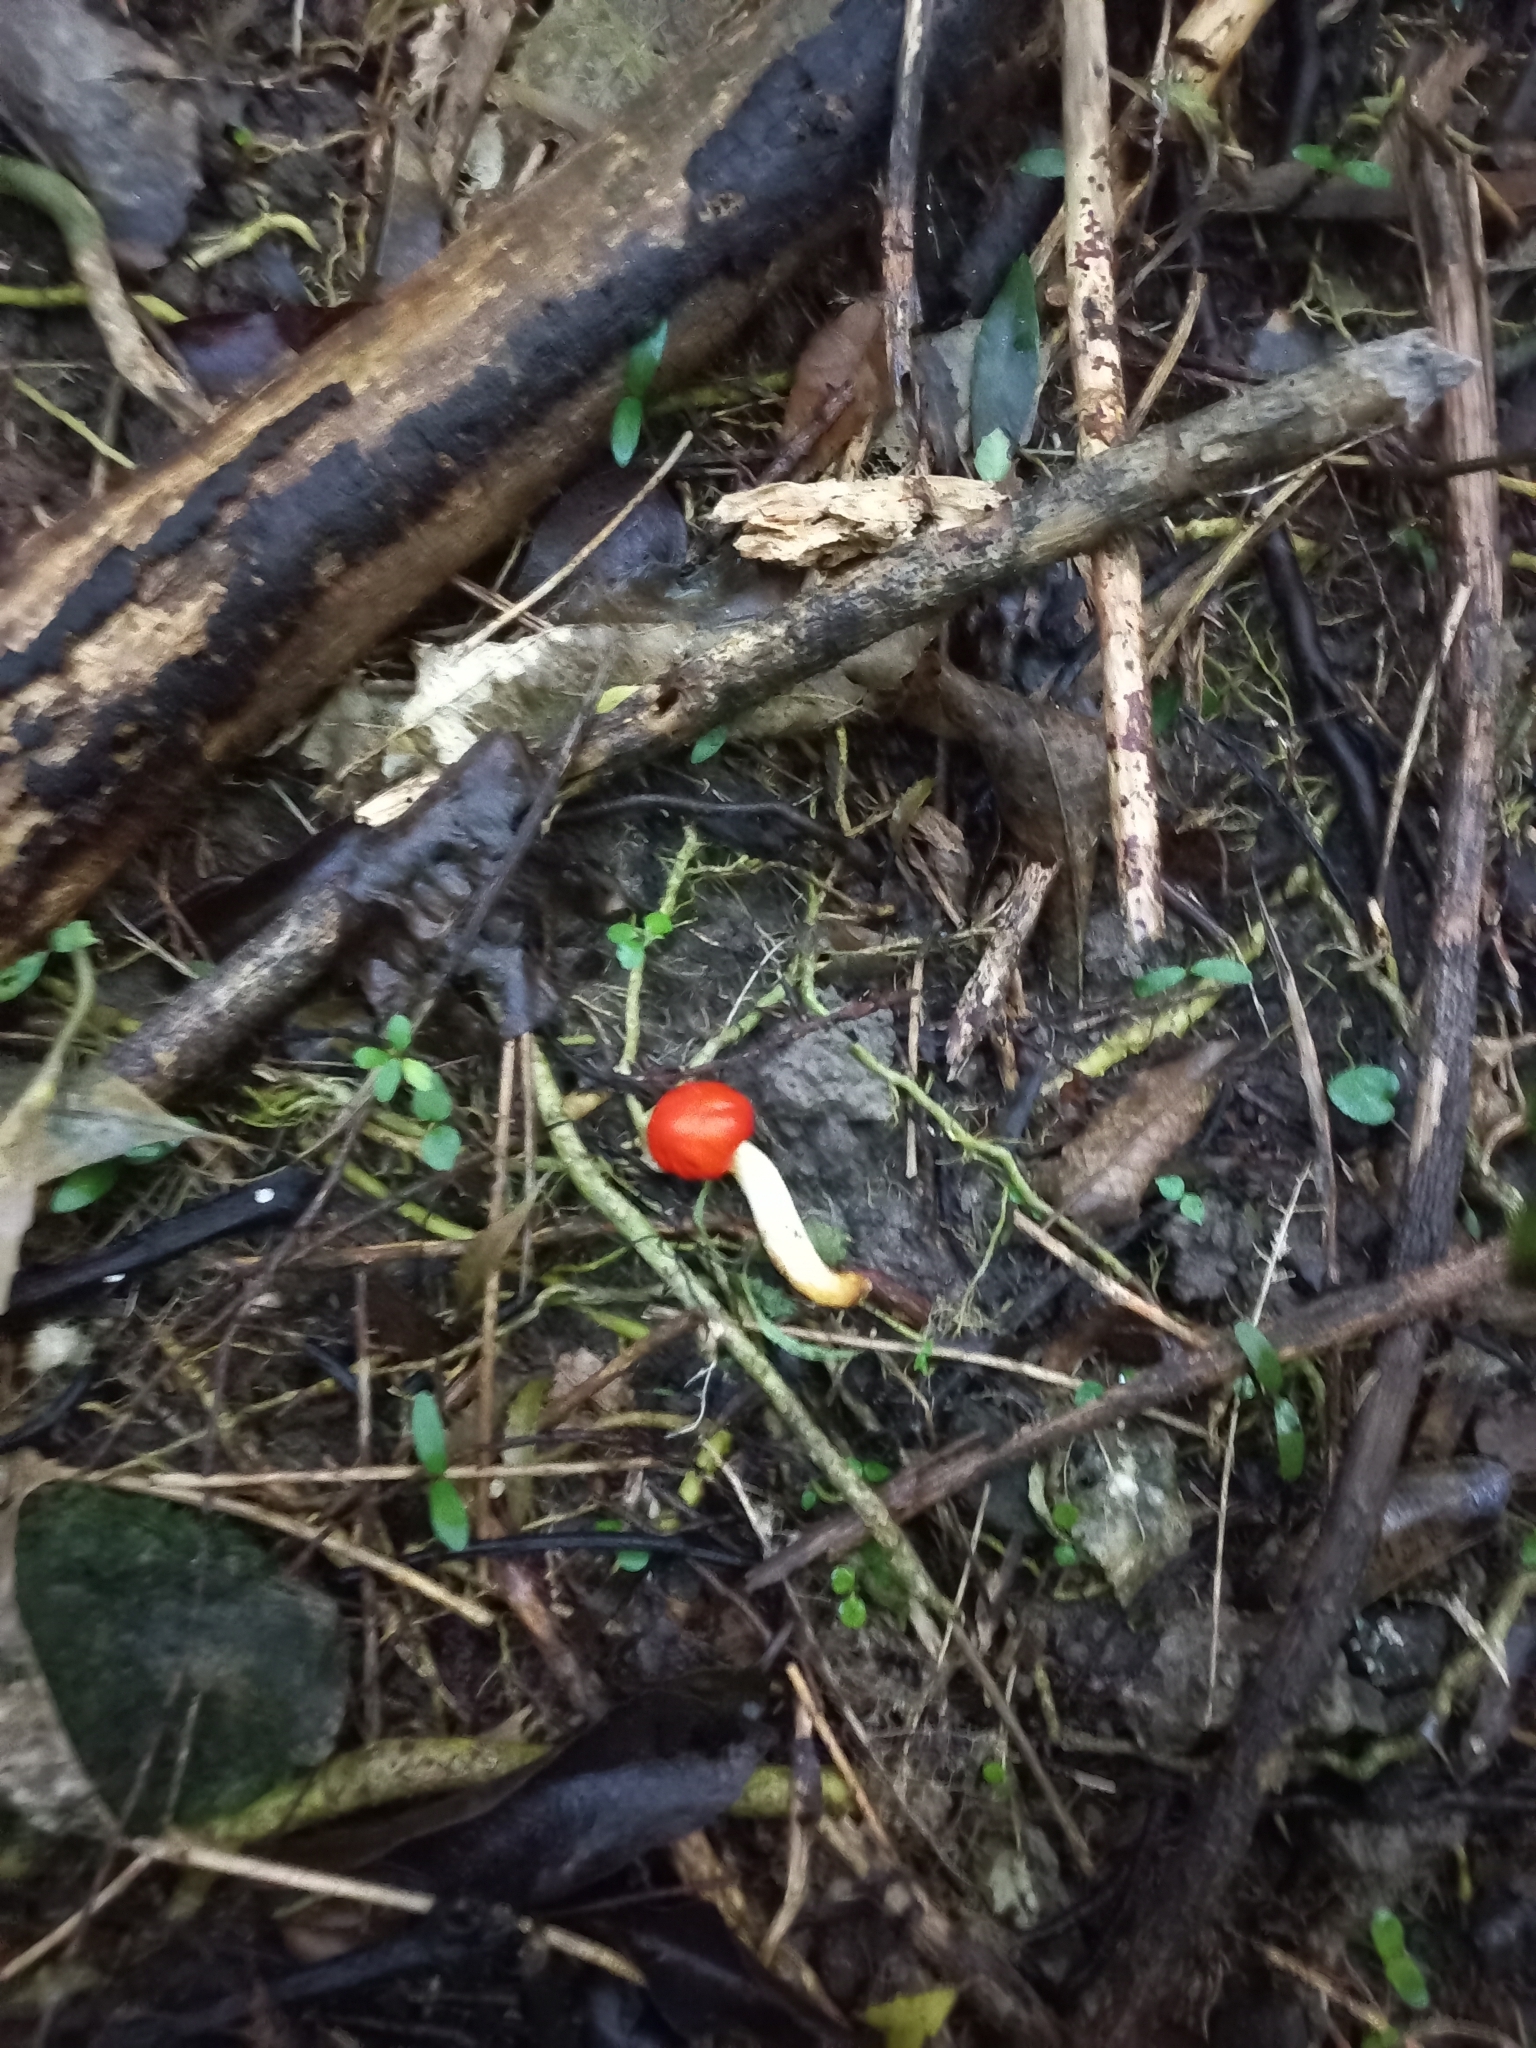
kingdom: Fungi
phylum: Basidiomycota
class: Agaricomycetes
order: Agaricales
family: Strophariaceae
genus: Leratiomyces
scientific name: Leratiomyces erythrocephalus
